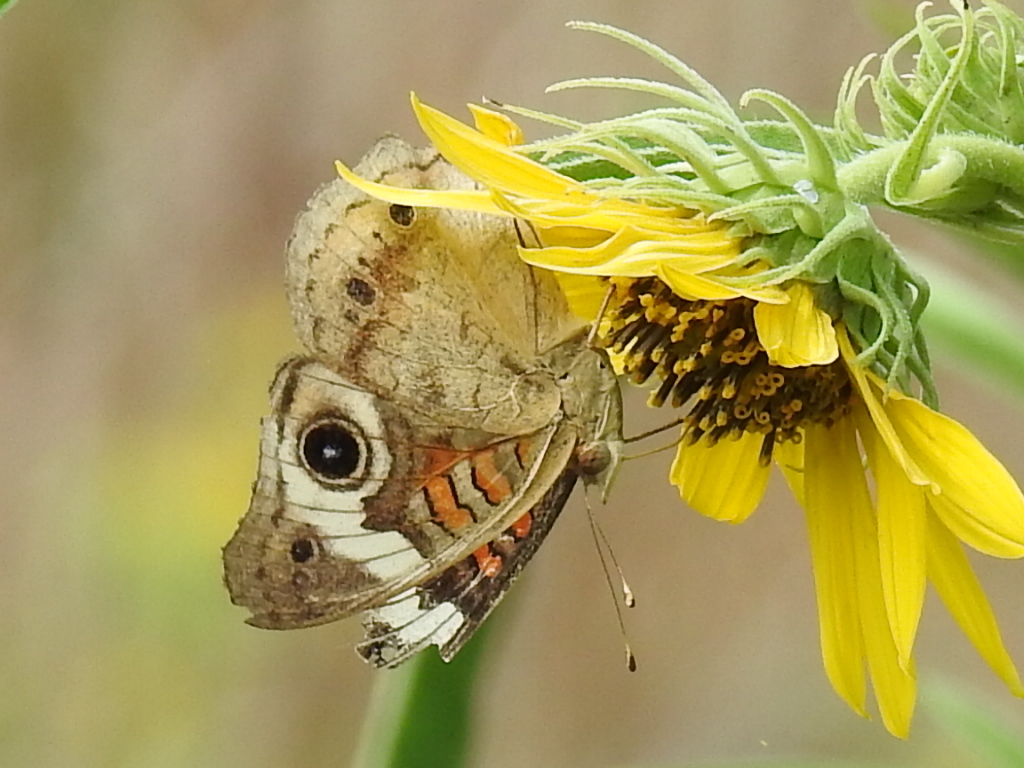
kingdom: Animalia
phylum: Arthropoda
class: Insecta
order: Lepidoptera
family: Nymphalidae
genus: Junonia
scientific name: Junonia coenia
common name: Common buckeye
